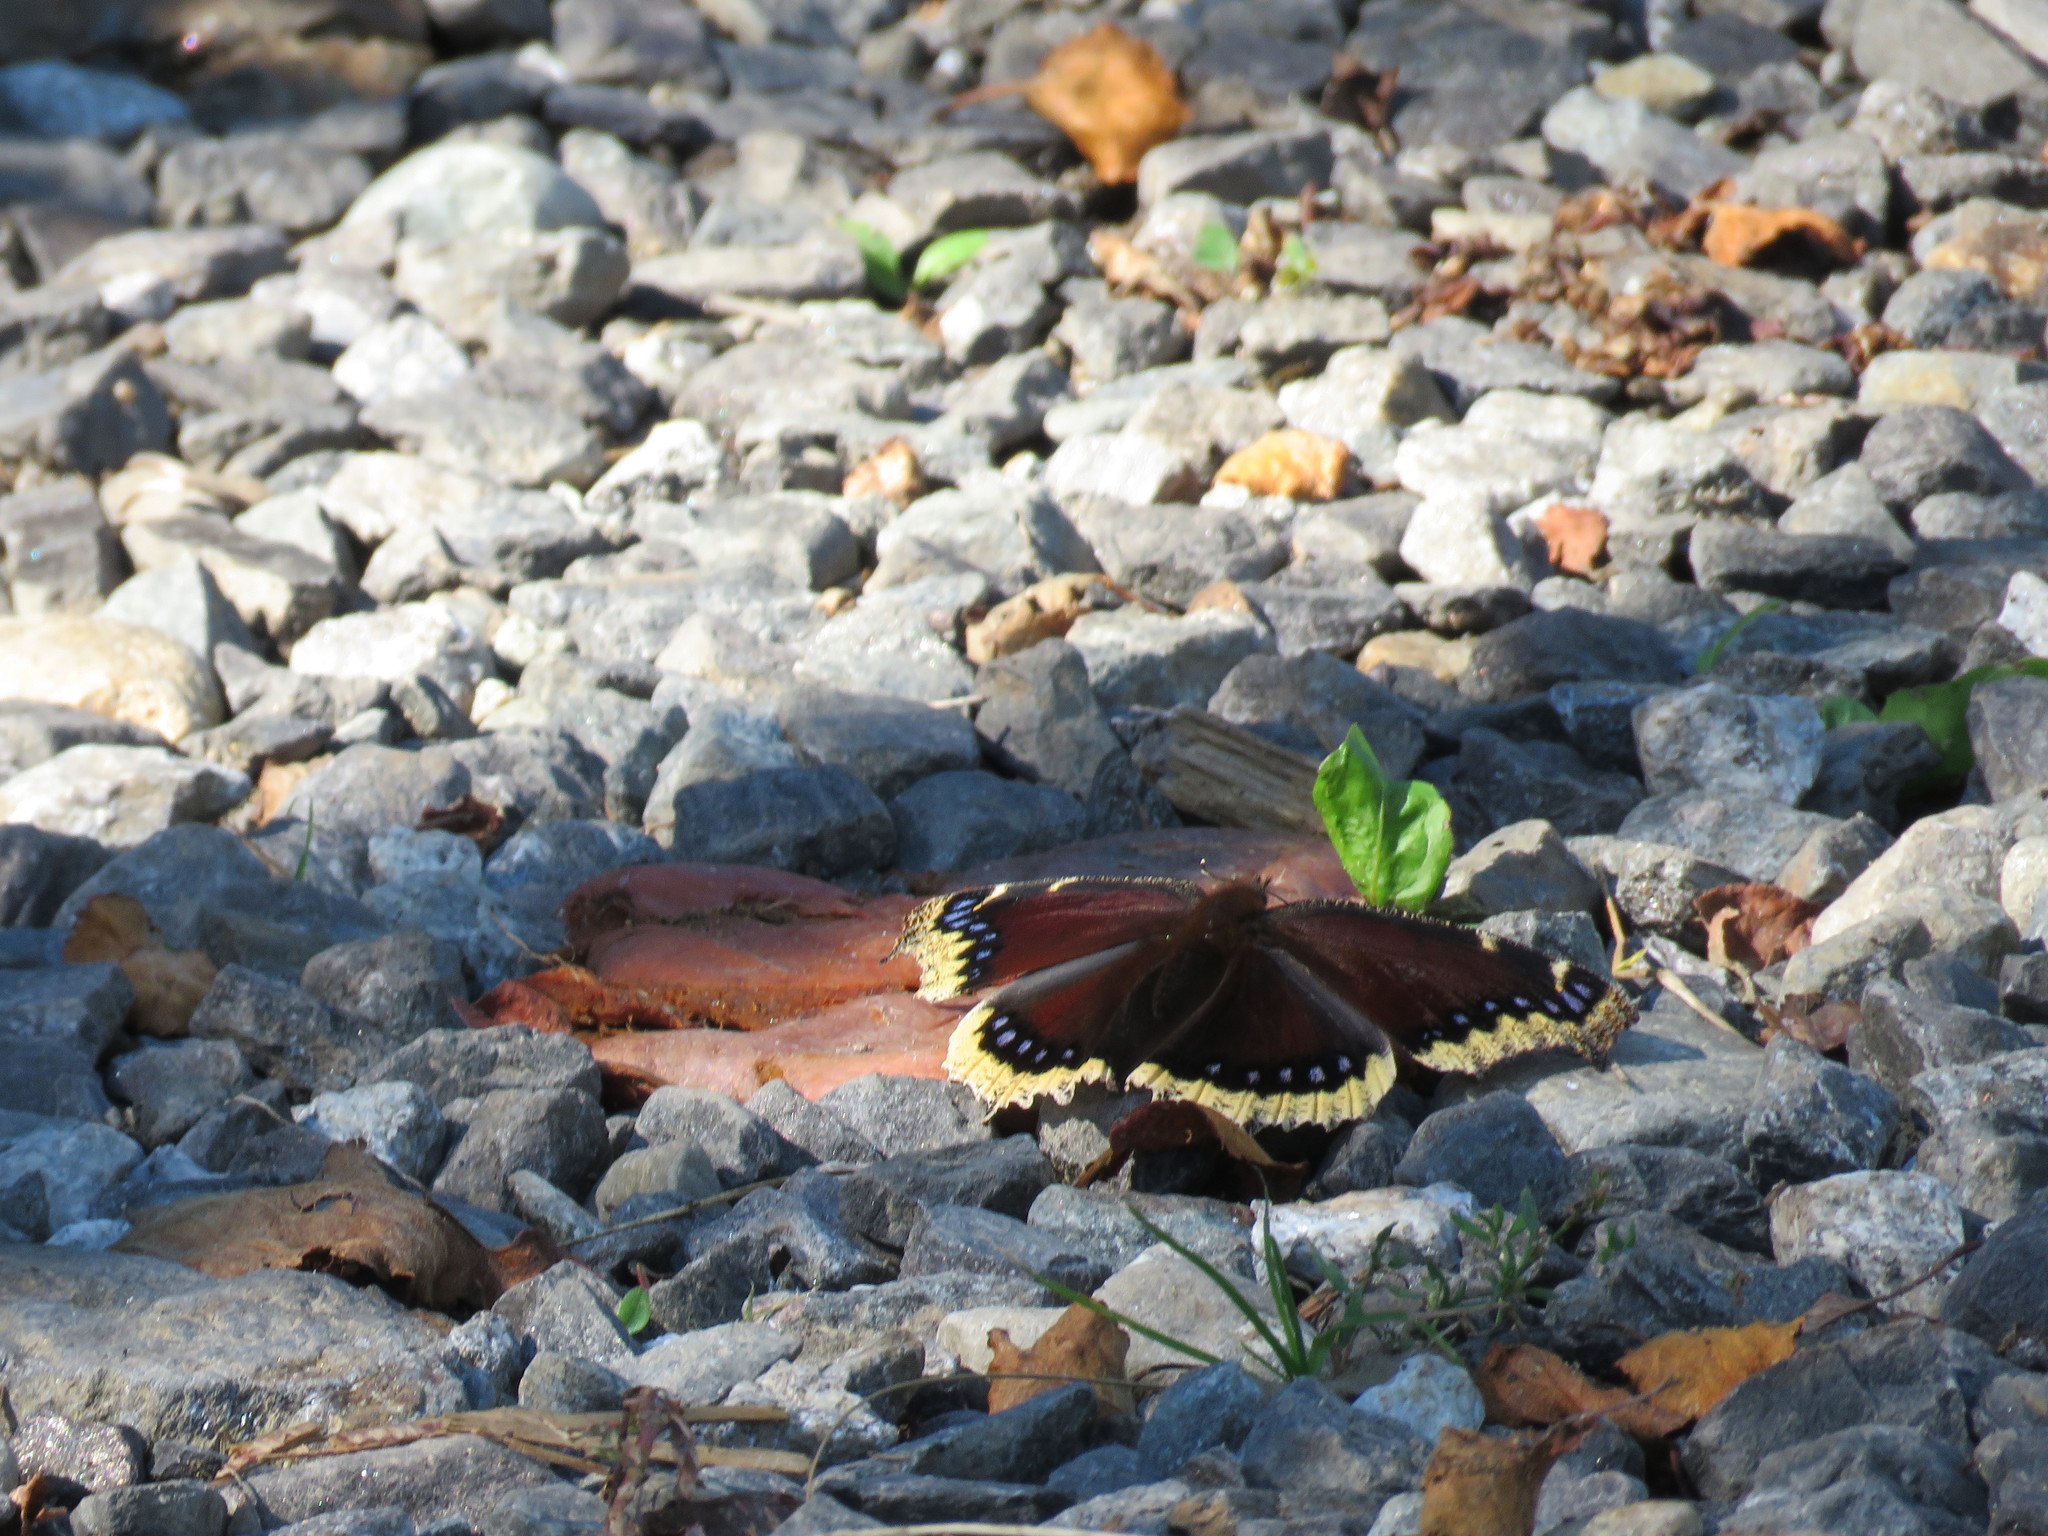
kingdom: Animalia
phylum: Arthropoda
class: Insecta
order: Lepidoptera
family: Nymphalidae
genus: Nymphalis
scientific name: Nymphalis antiopa
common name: Camberwell beauty
